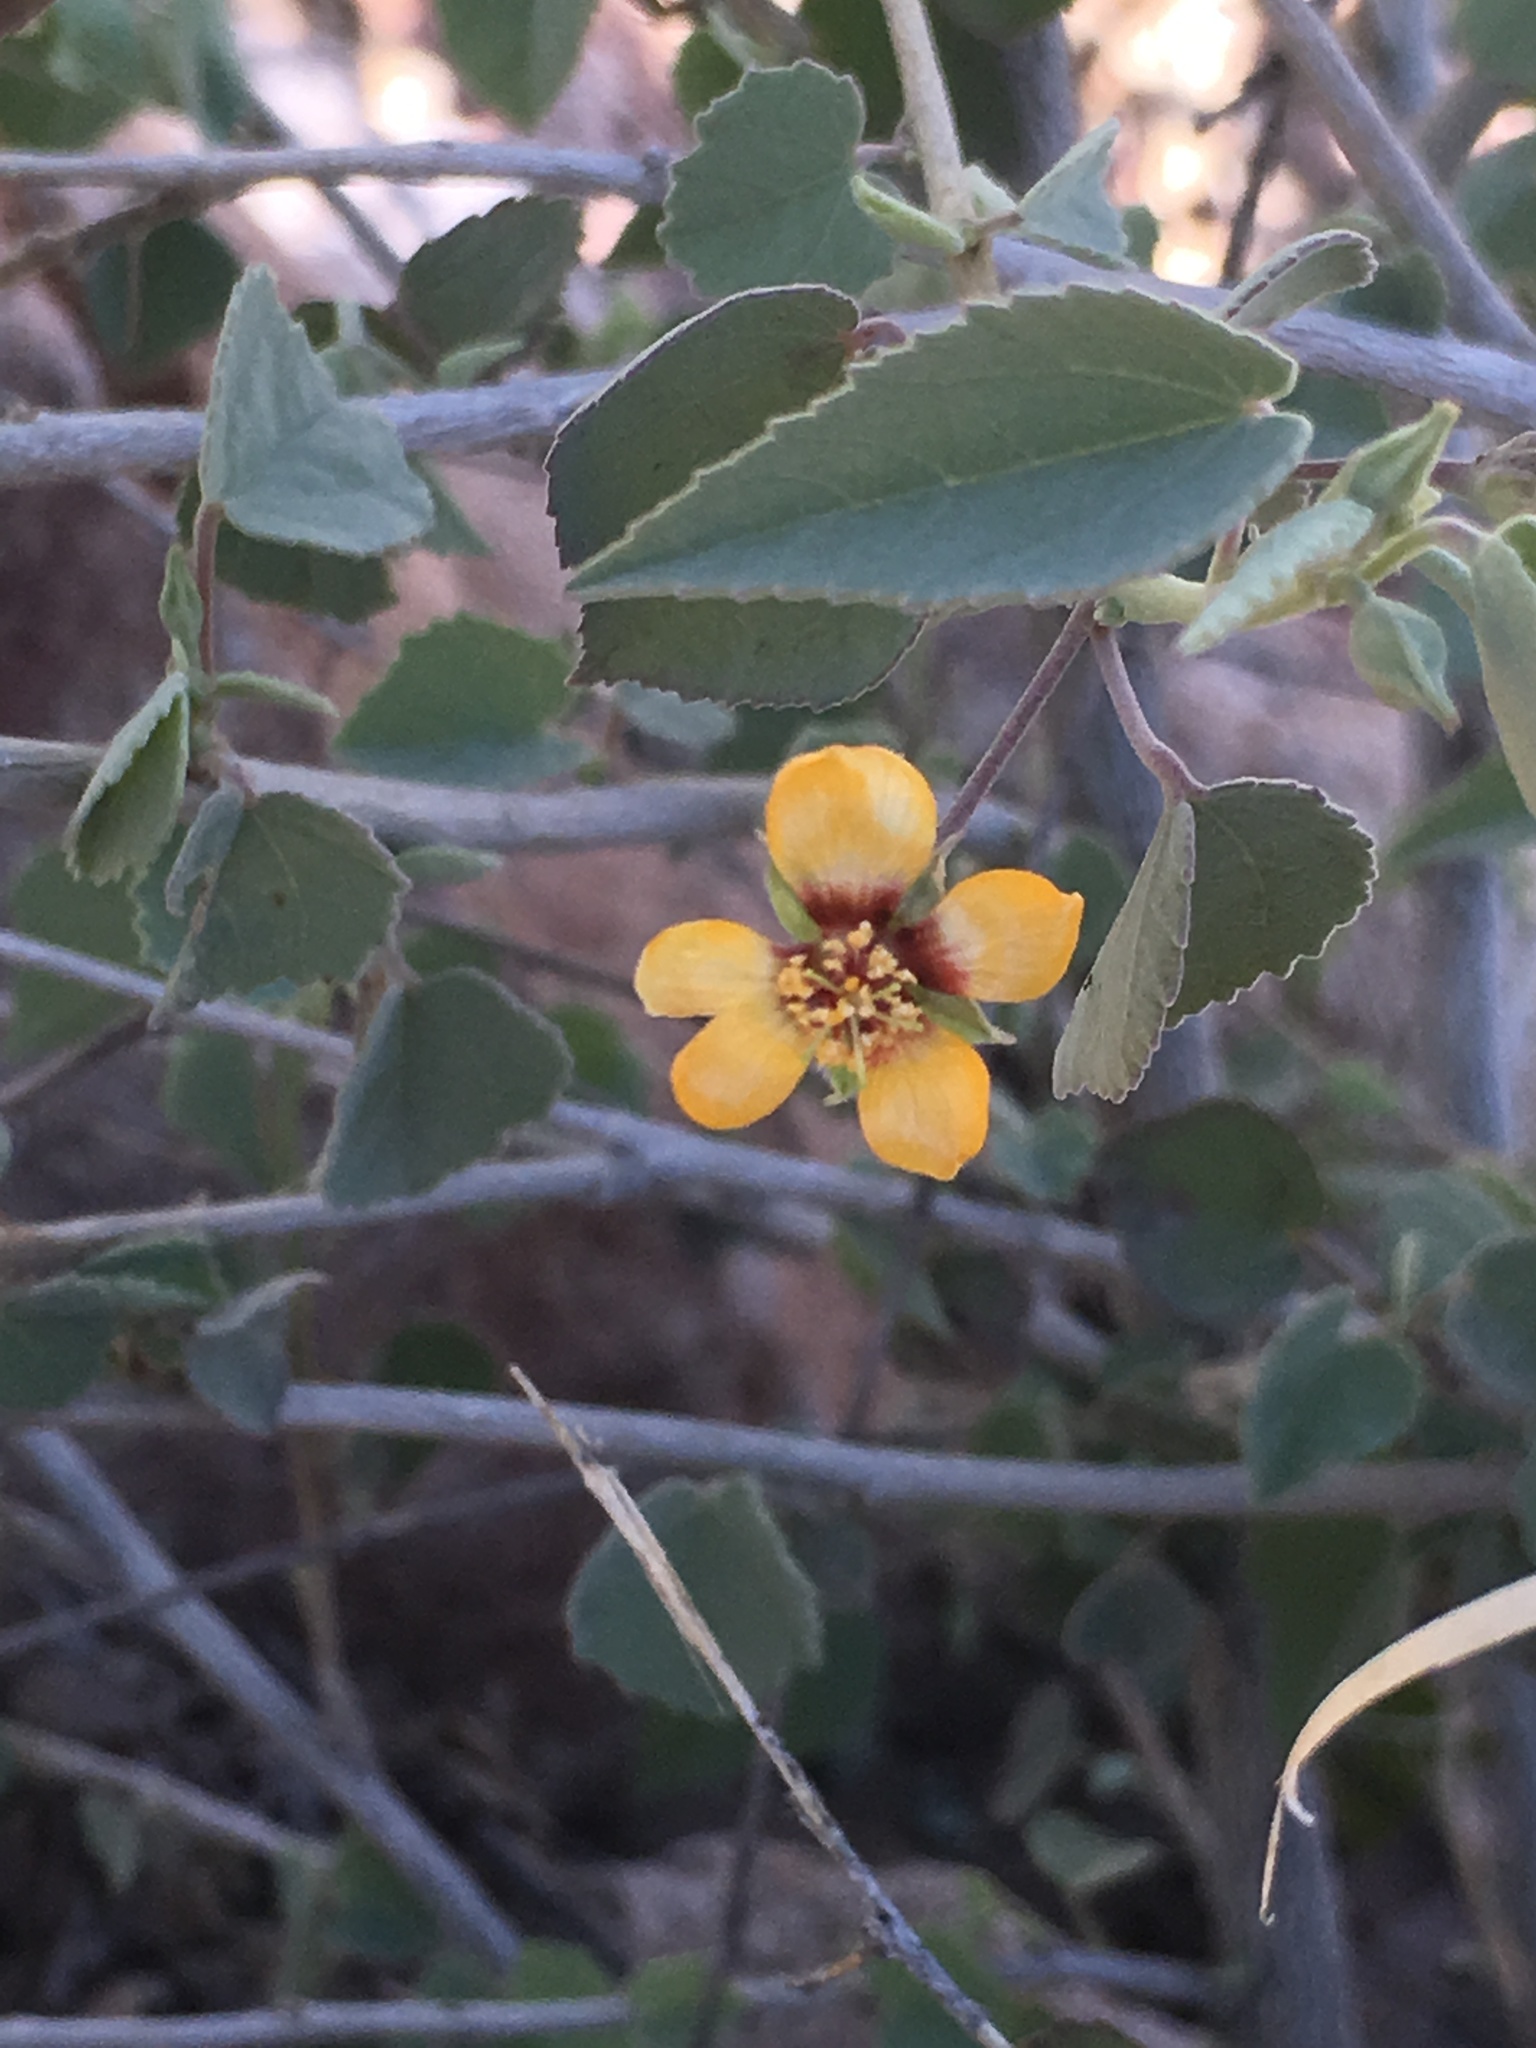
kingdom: Plantae
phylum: Tracheophyta
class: Magnoliopsida
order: Malvales
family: Malvaceae
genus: Abutilon
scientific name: Abutilon incanum
